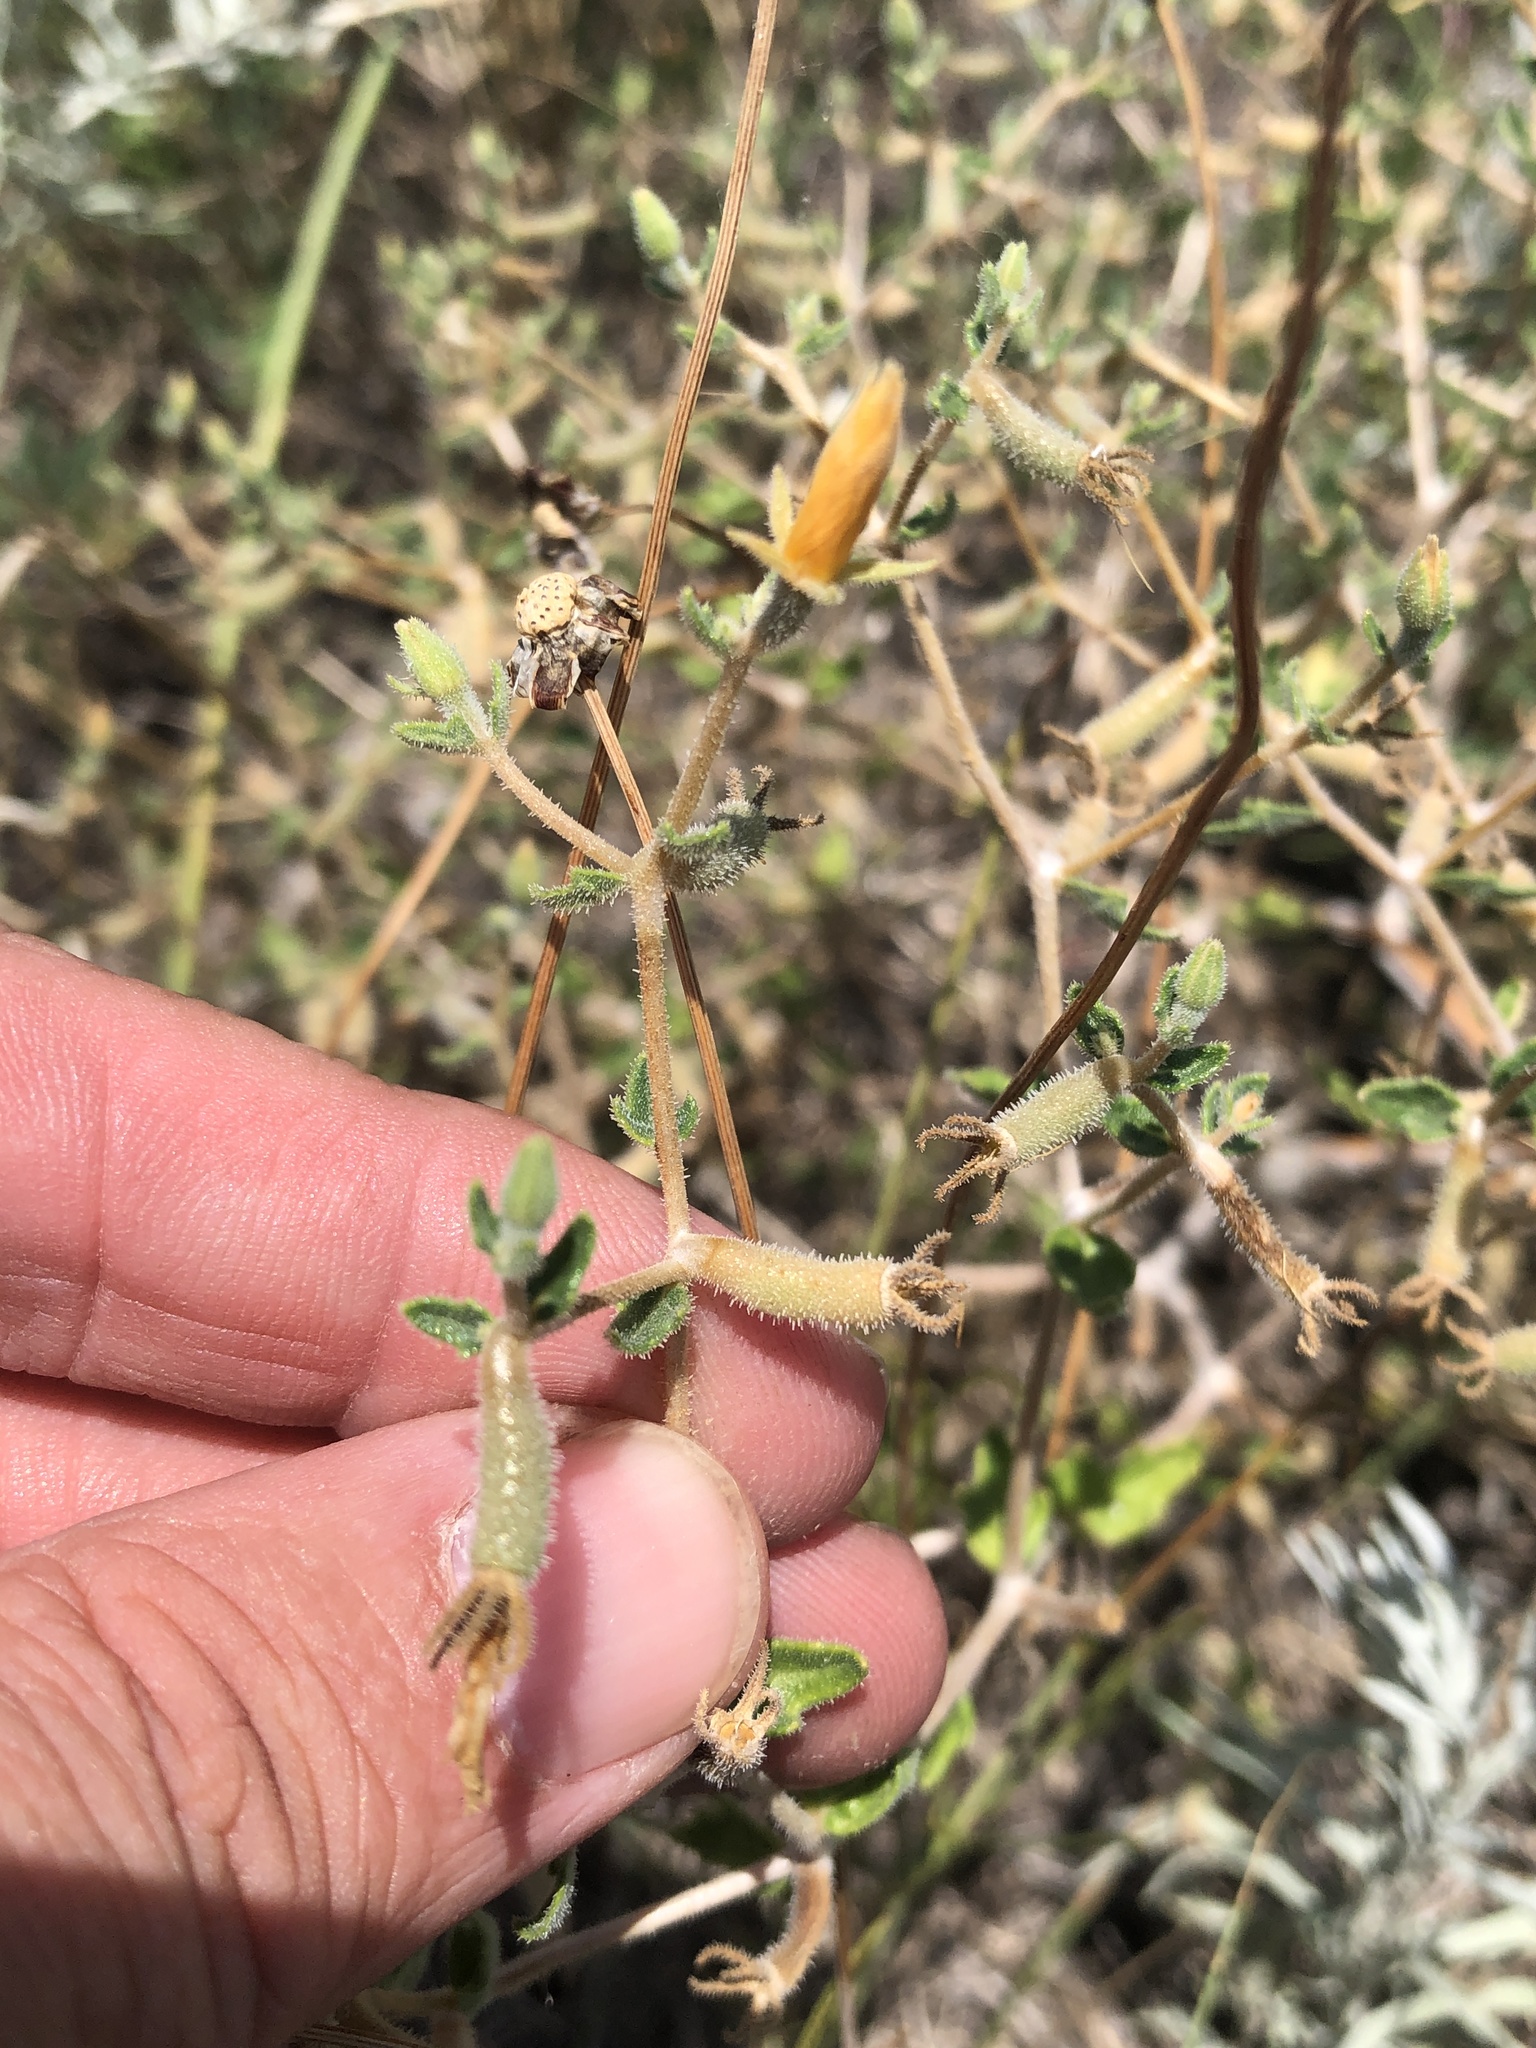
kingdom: Plantae
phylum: Tracheophyta
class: Magnoliopsida
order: Cornales
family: Loasaceae
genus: Mentzelia
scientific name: Mentzelia oligosperma
